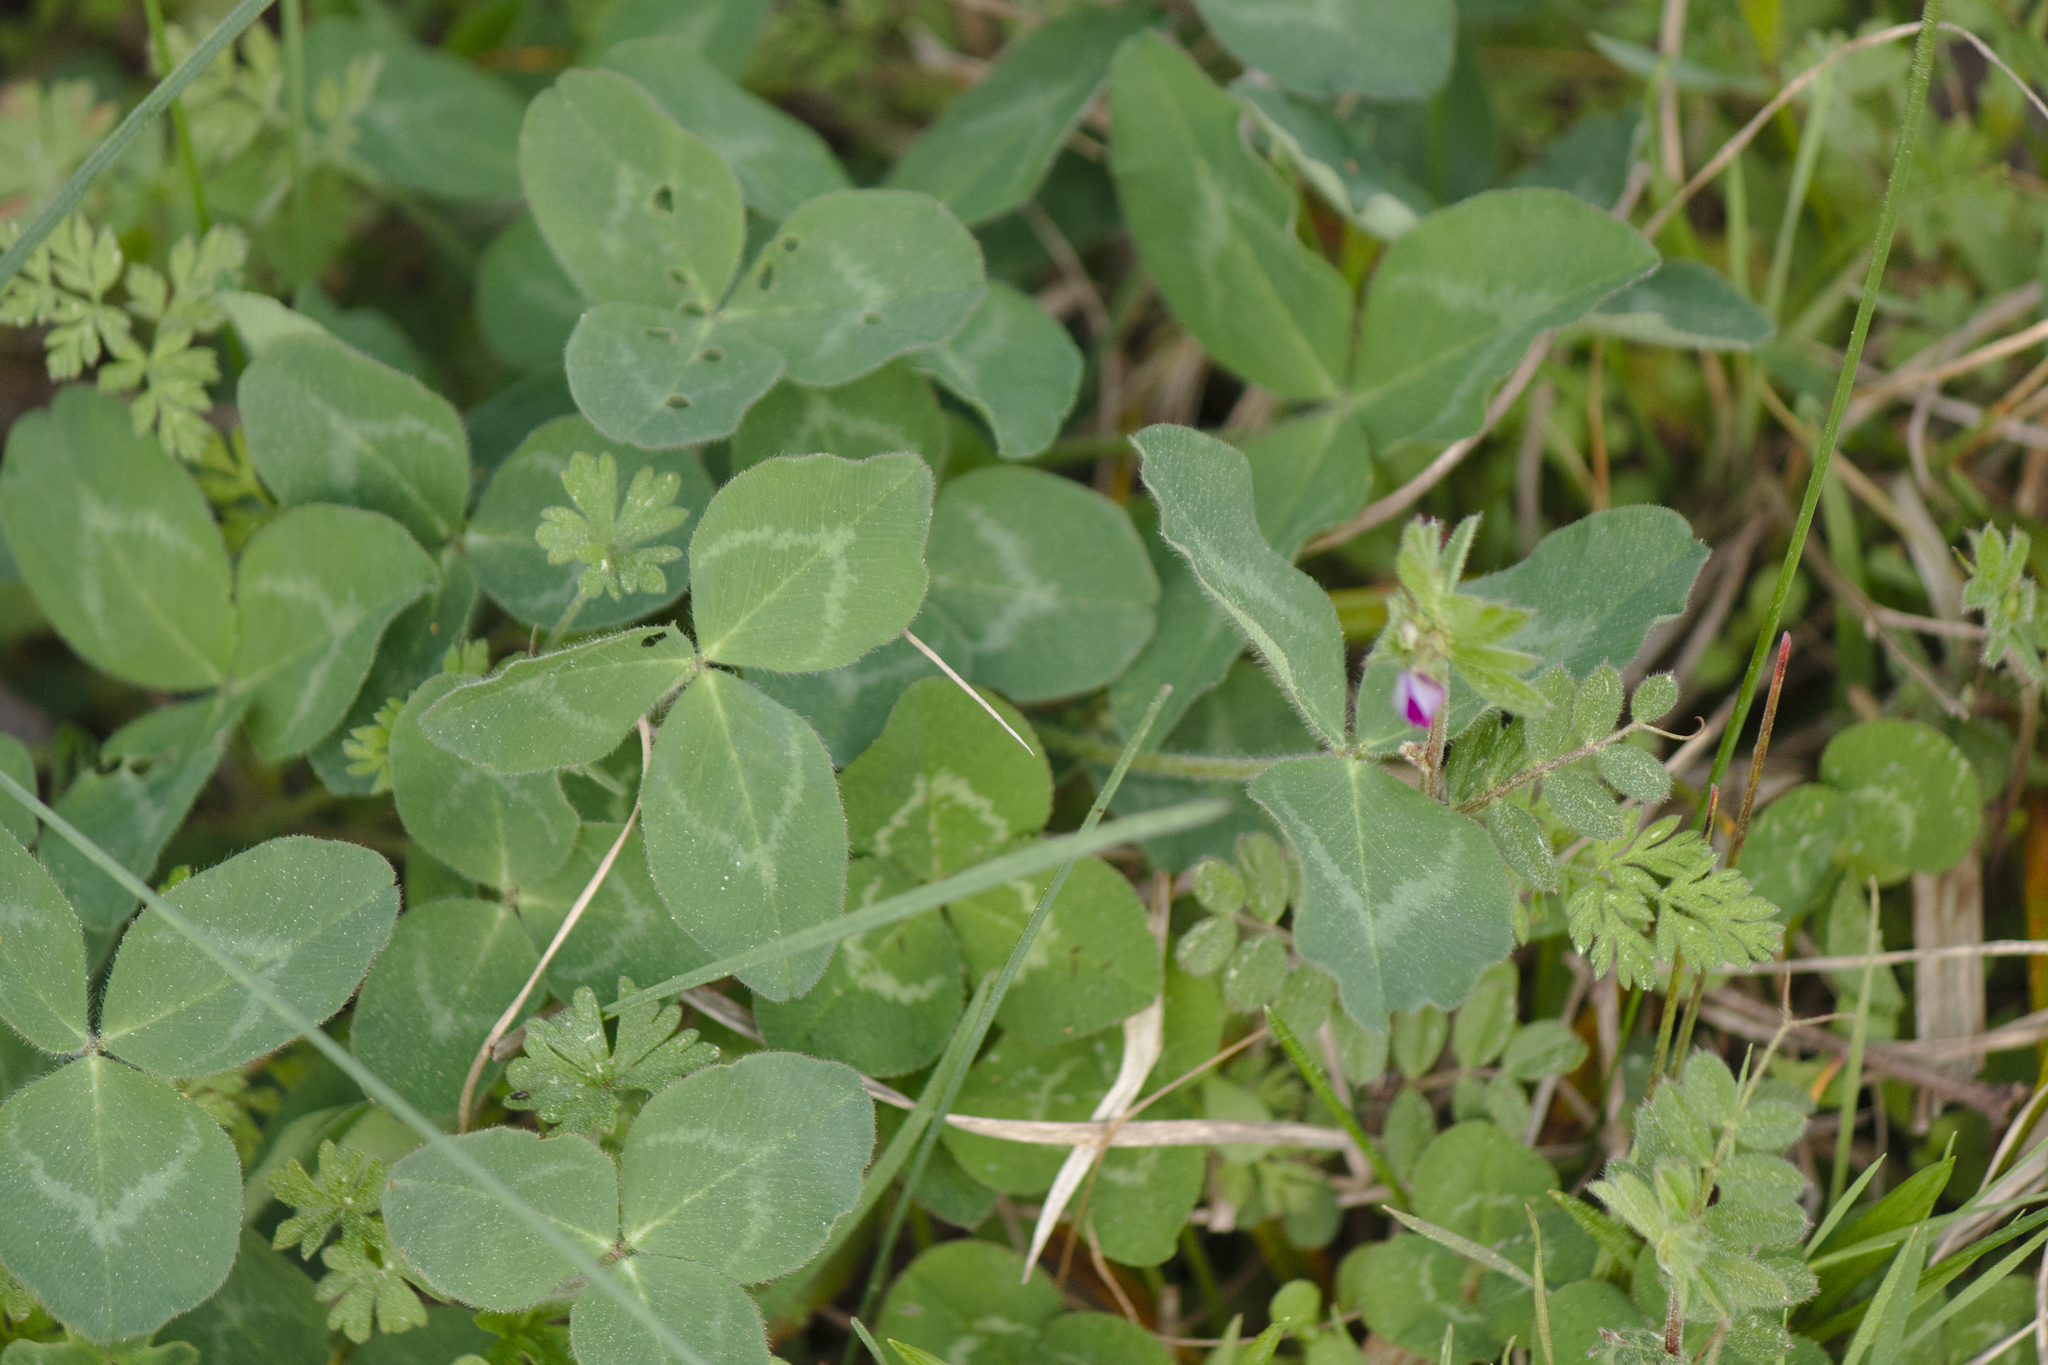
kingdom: Plantae
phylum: Tracheophyta
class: Magnoliopsida
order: Fabales
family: Fabaceae
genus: Trifolium
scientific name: Trifolium pratense
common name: Red clover
